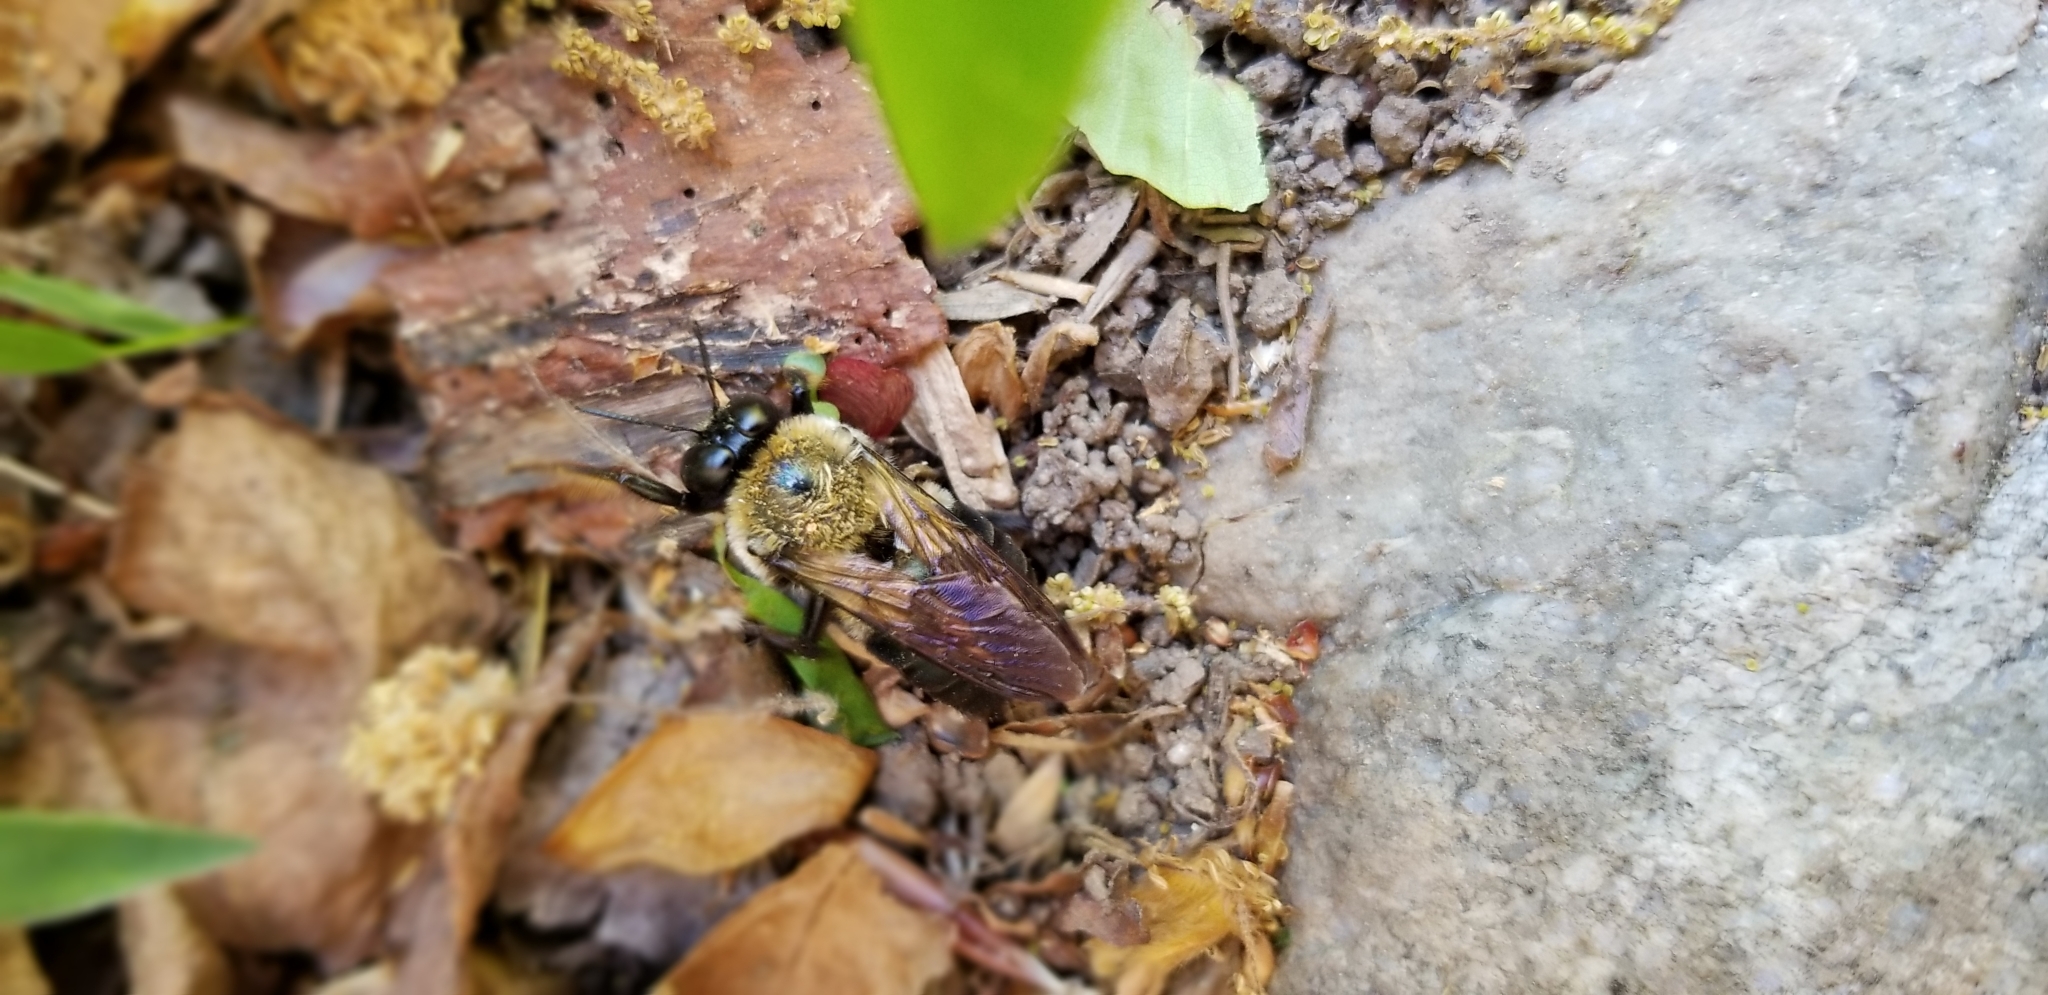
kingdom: Animalia
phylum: Arthropoda
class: Insecta
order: Hymenoptera
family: Apidae
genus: Xylocopa
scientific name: Xylocopa virginica
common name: Carpenter bee
